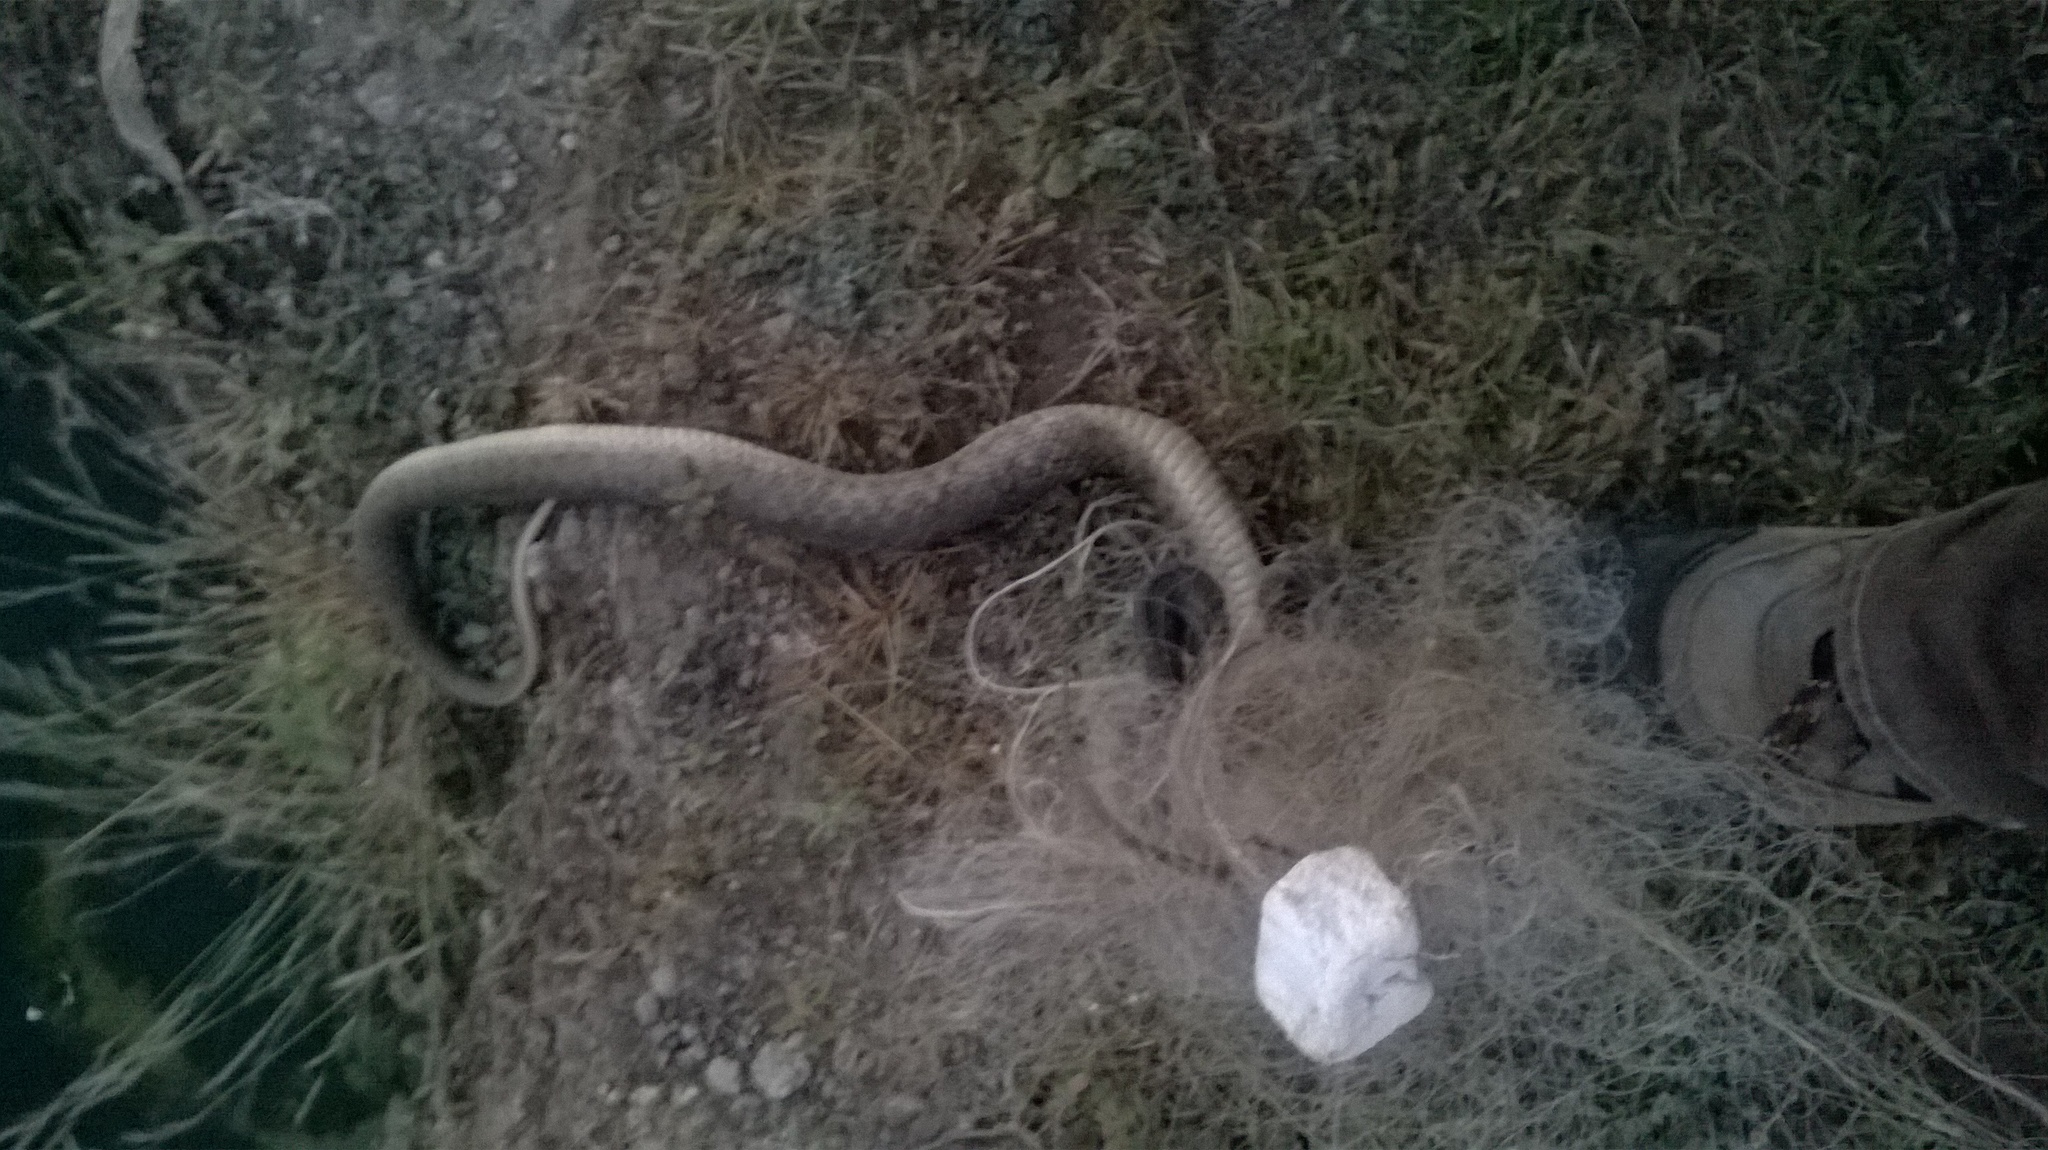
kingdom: Animalia
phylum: Chordata
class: Squamata
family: Colubridae
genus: Fowlea
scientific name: Fowlea piscator
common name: Asiatic water snake
